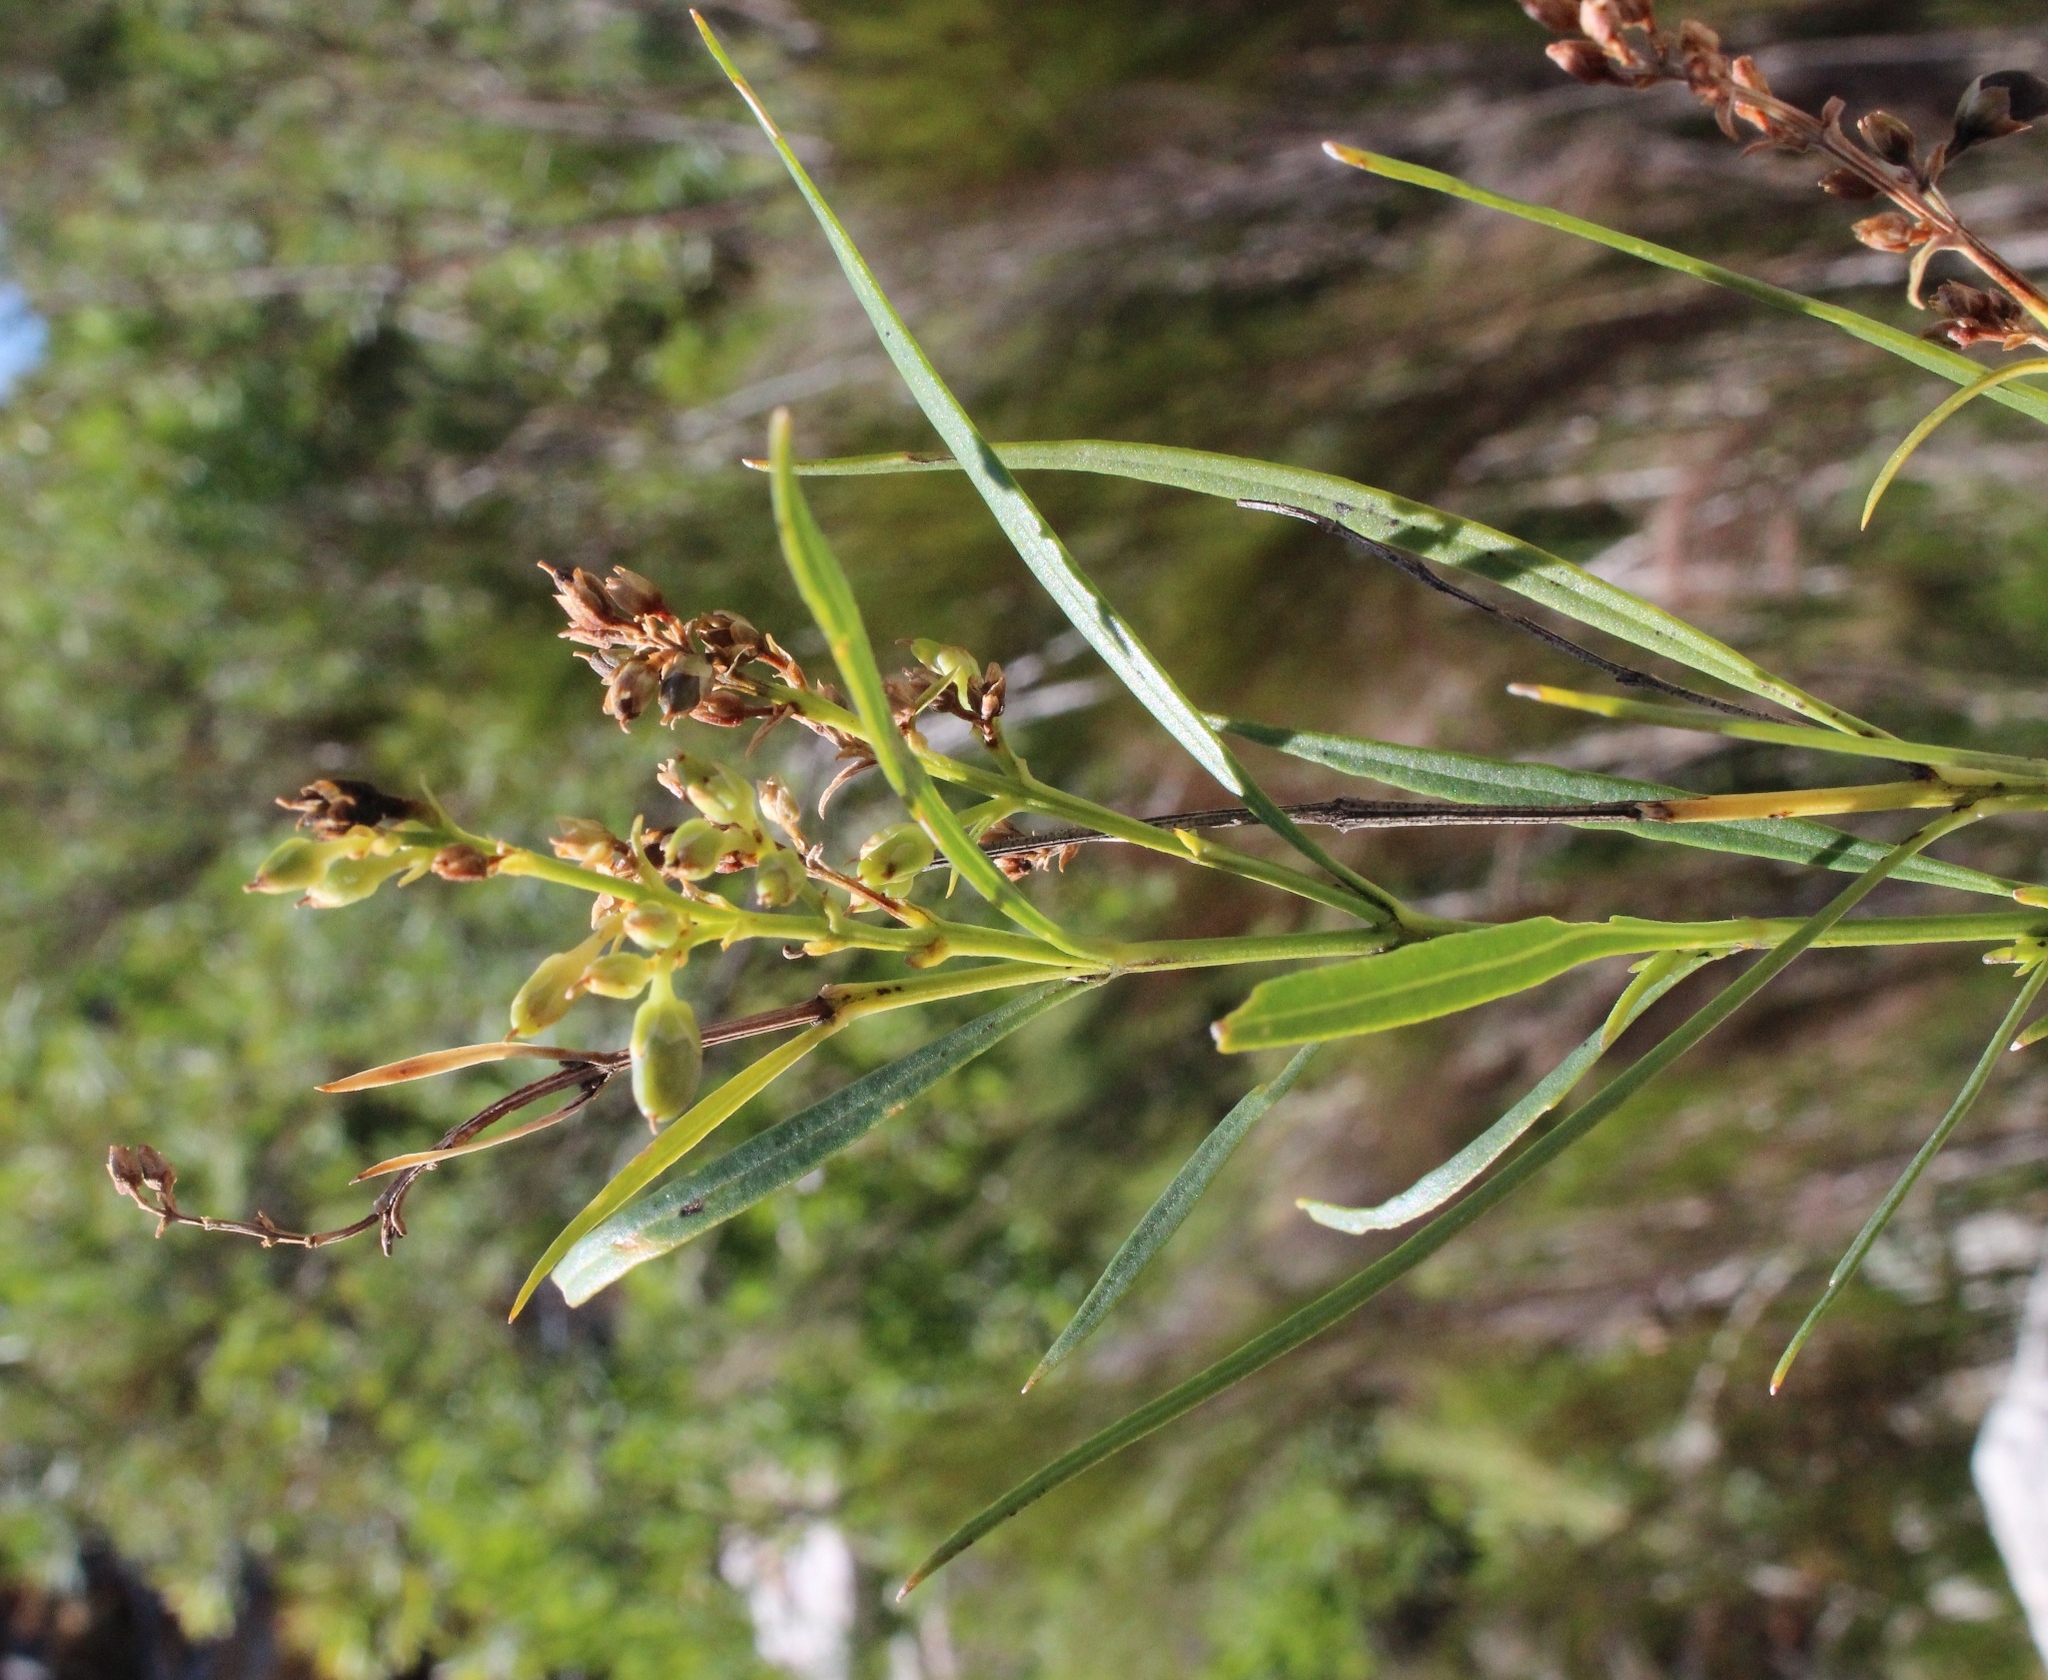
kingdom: Plantae
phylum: Tracheophyta
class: Magnoliopsida
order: Lamiales
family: Scrophulariaceae
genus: Freylinia
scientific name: Freylinia lanceolata
